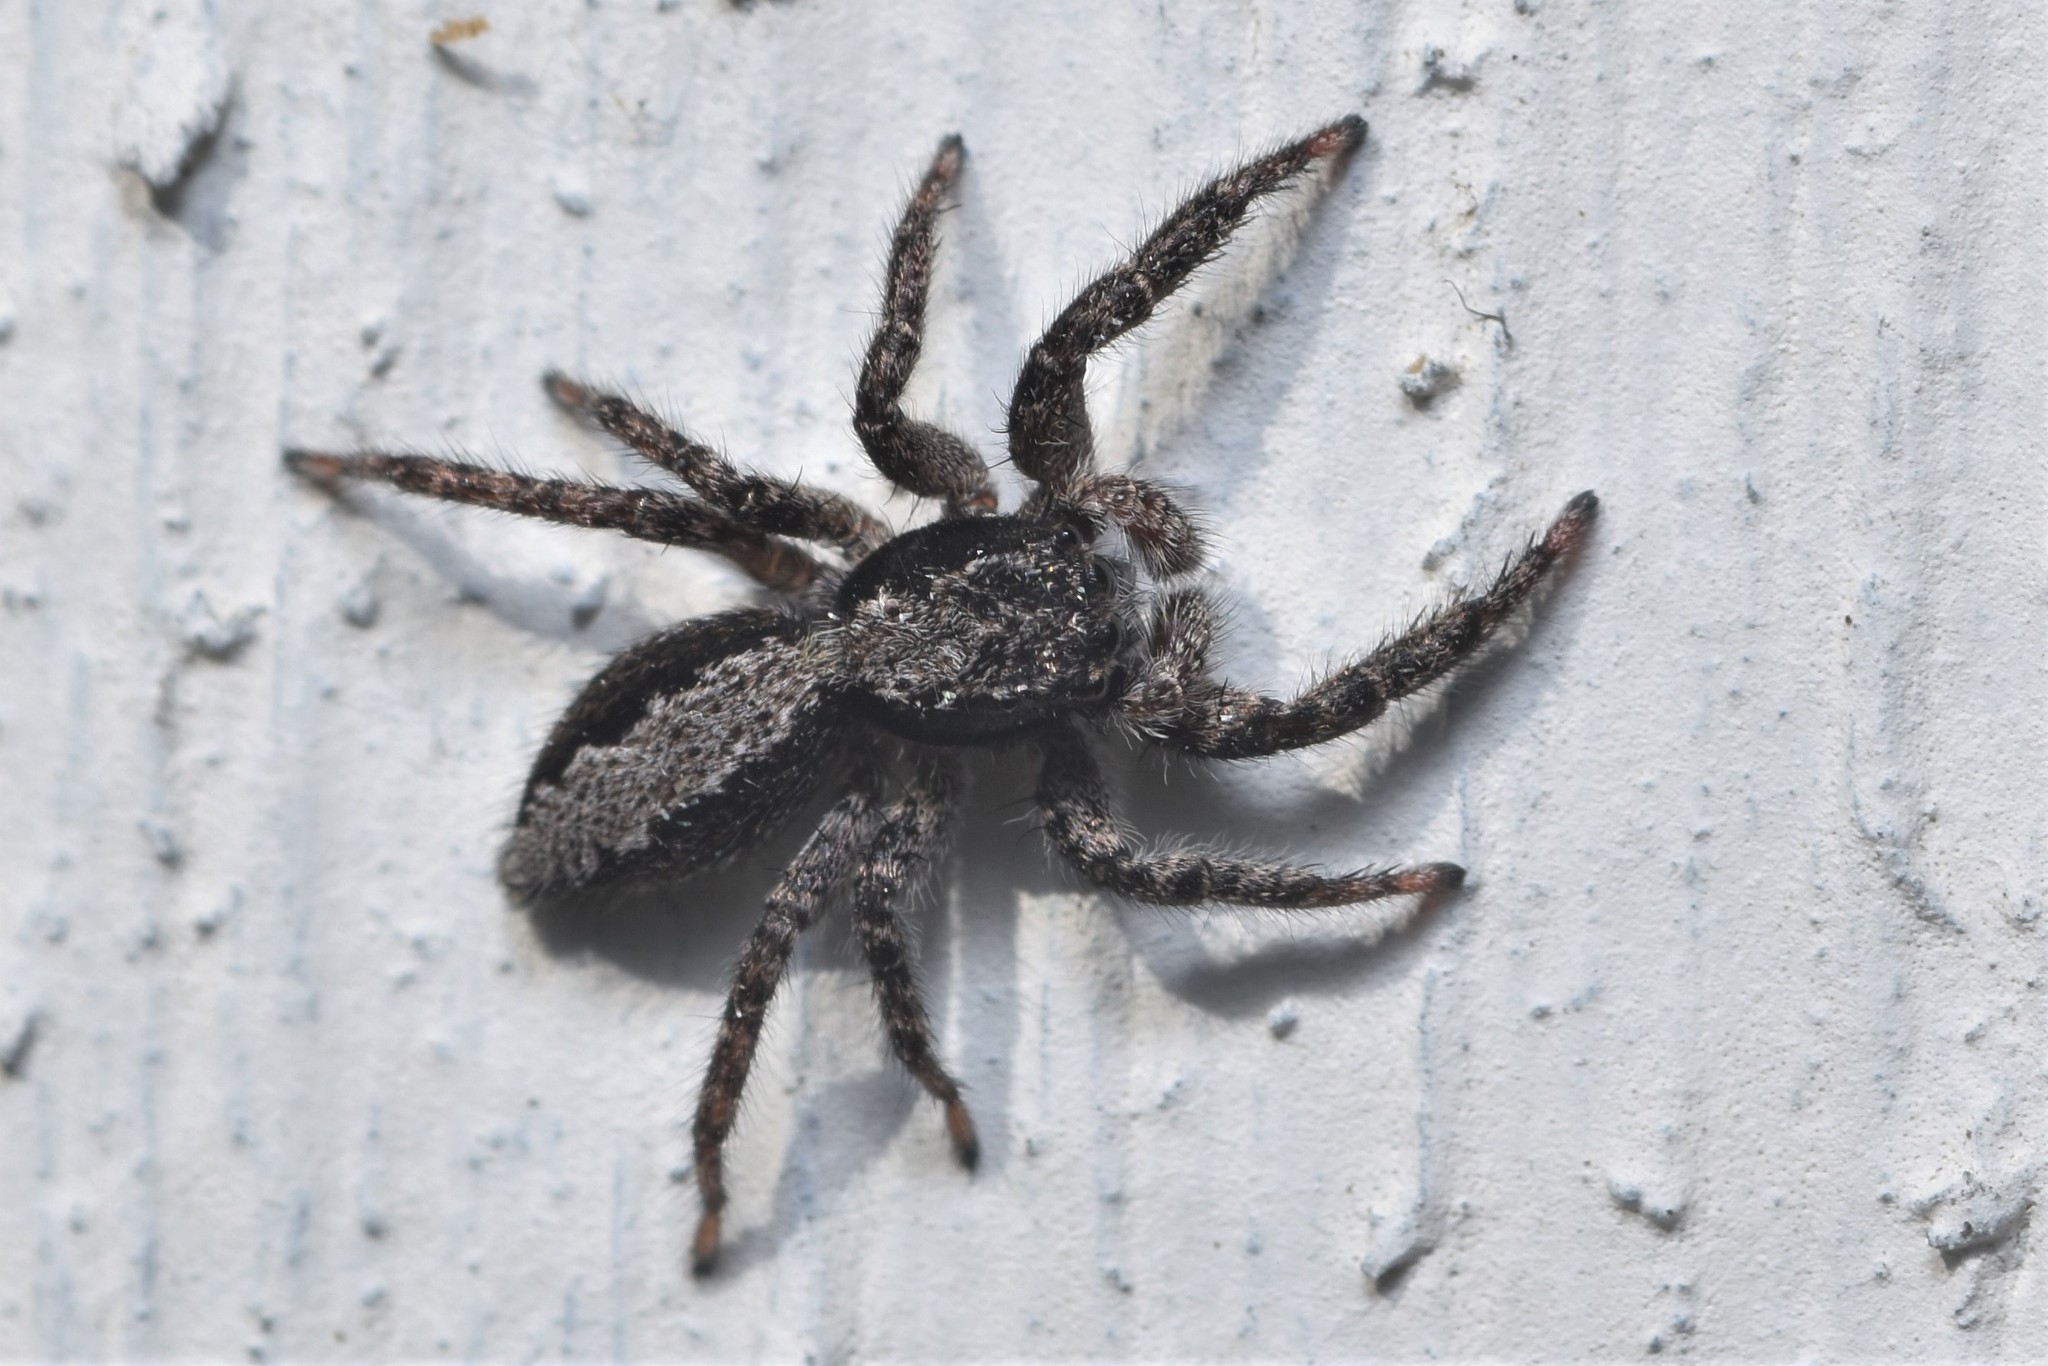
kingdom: Animalia
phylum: Arthropoda
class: Arachnida
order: Araneae
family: Salticidae
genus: Platycryptus
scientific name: Platycryptus californicus
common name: Jumping spiders
